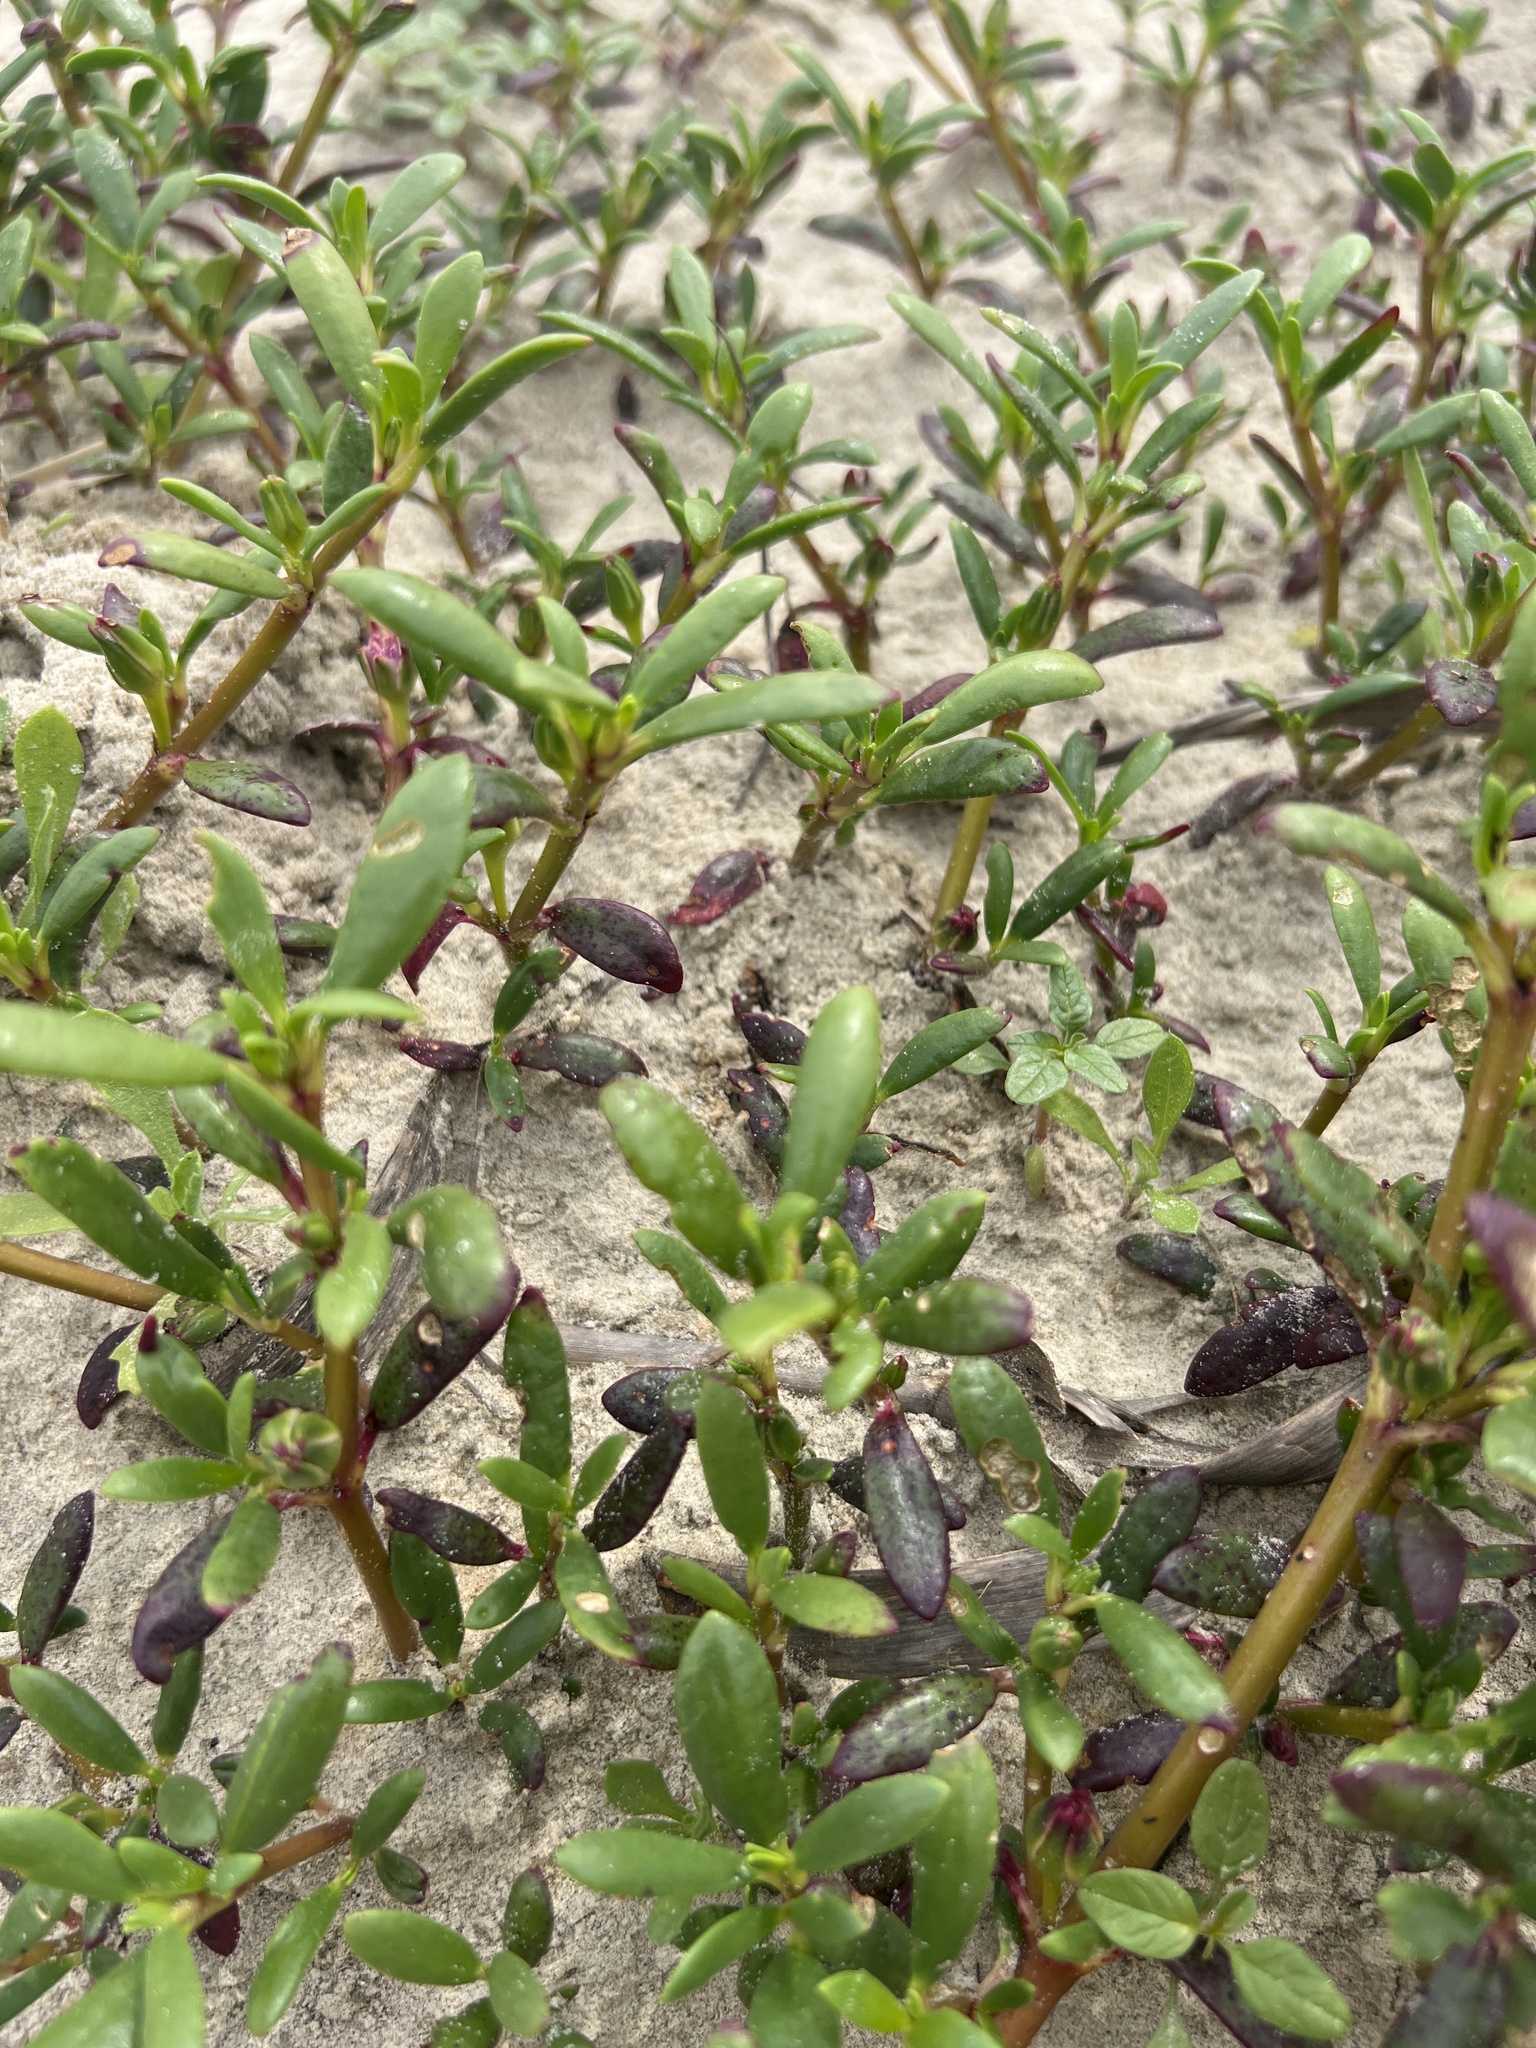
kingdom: Plantae
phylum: Tracheophyta
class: Magnoliopsida
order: Caryophyllales
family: Aizoaceae
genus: Sesuvium
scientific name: Sesuvium portulacastrum
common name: Sea-purslane
